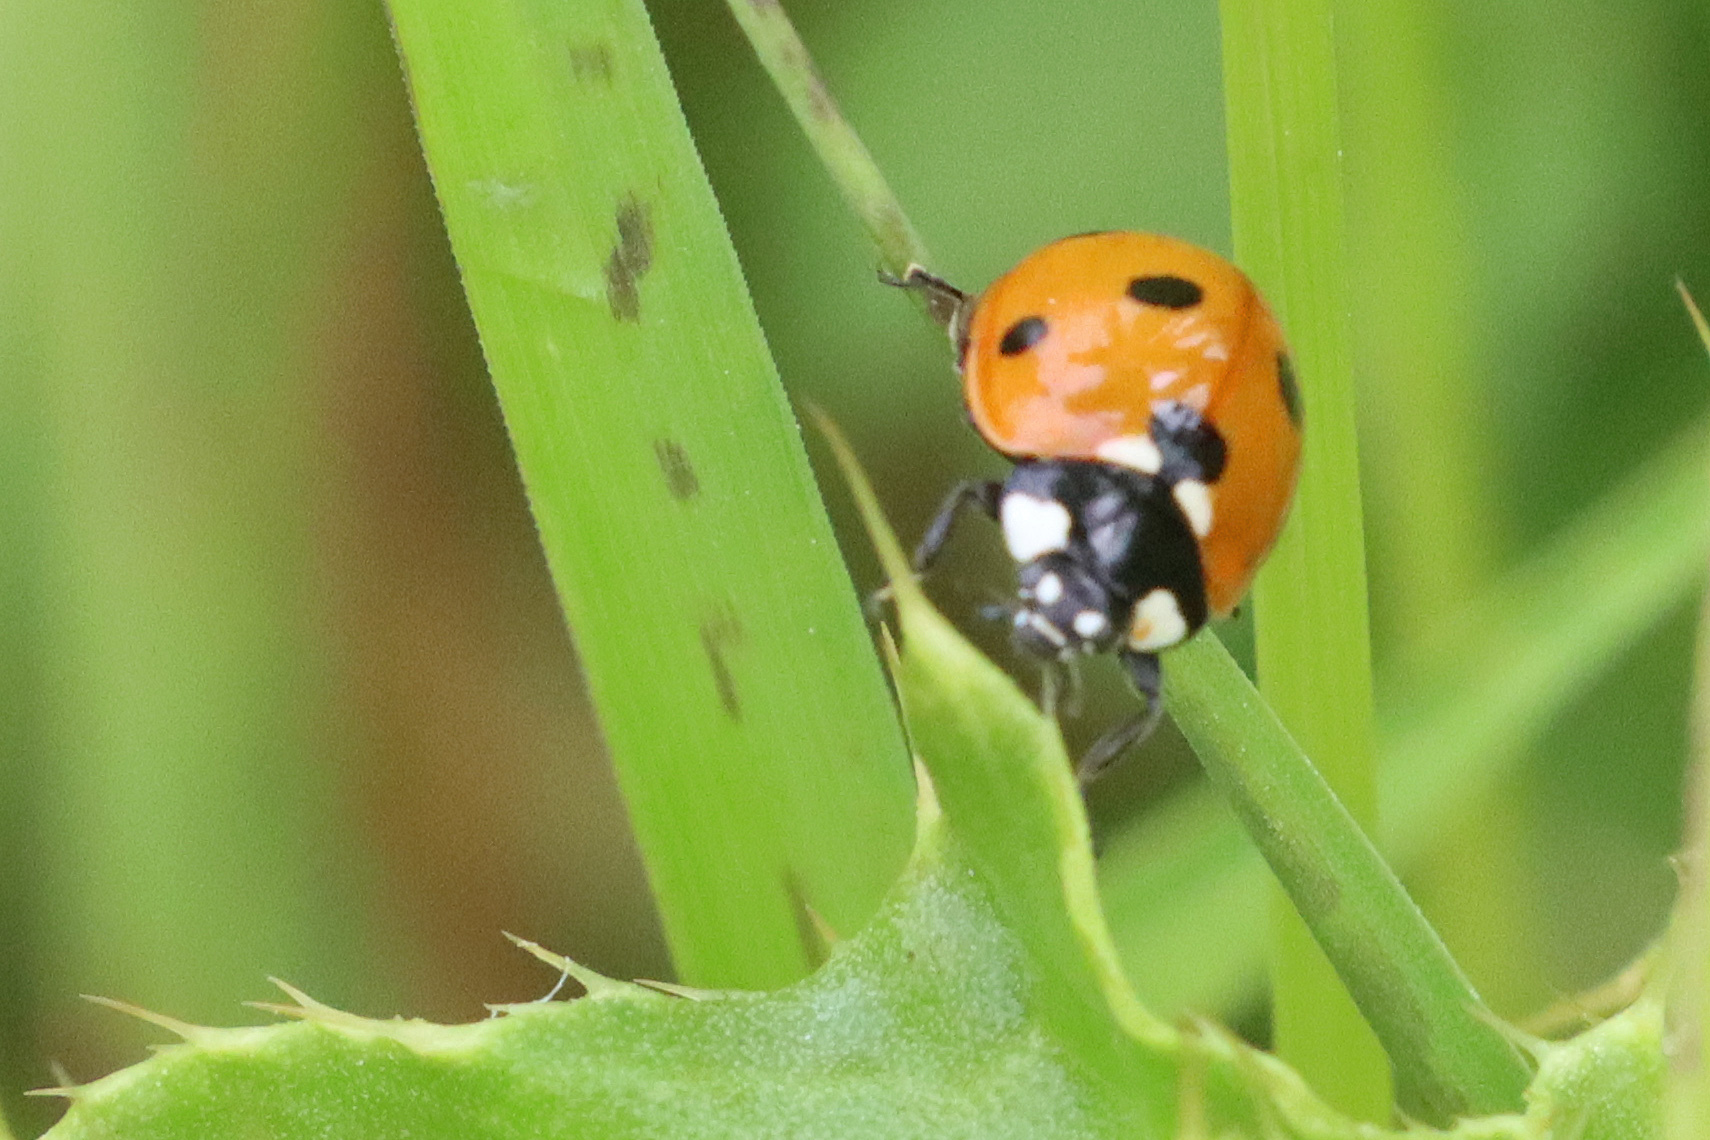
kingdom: Animalia
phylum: Arthropoda
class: Insecta
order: Coleoptera
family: Coccinellidae
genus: Coccinella
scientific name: Coccinella septempunctata
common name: Sevenspotted lady beetle
